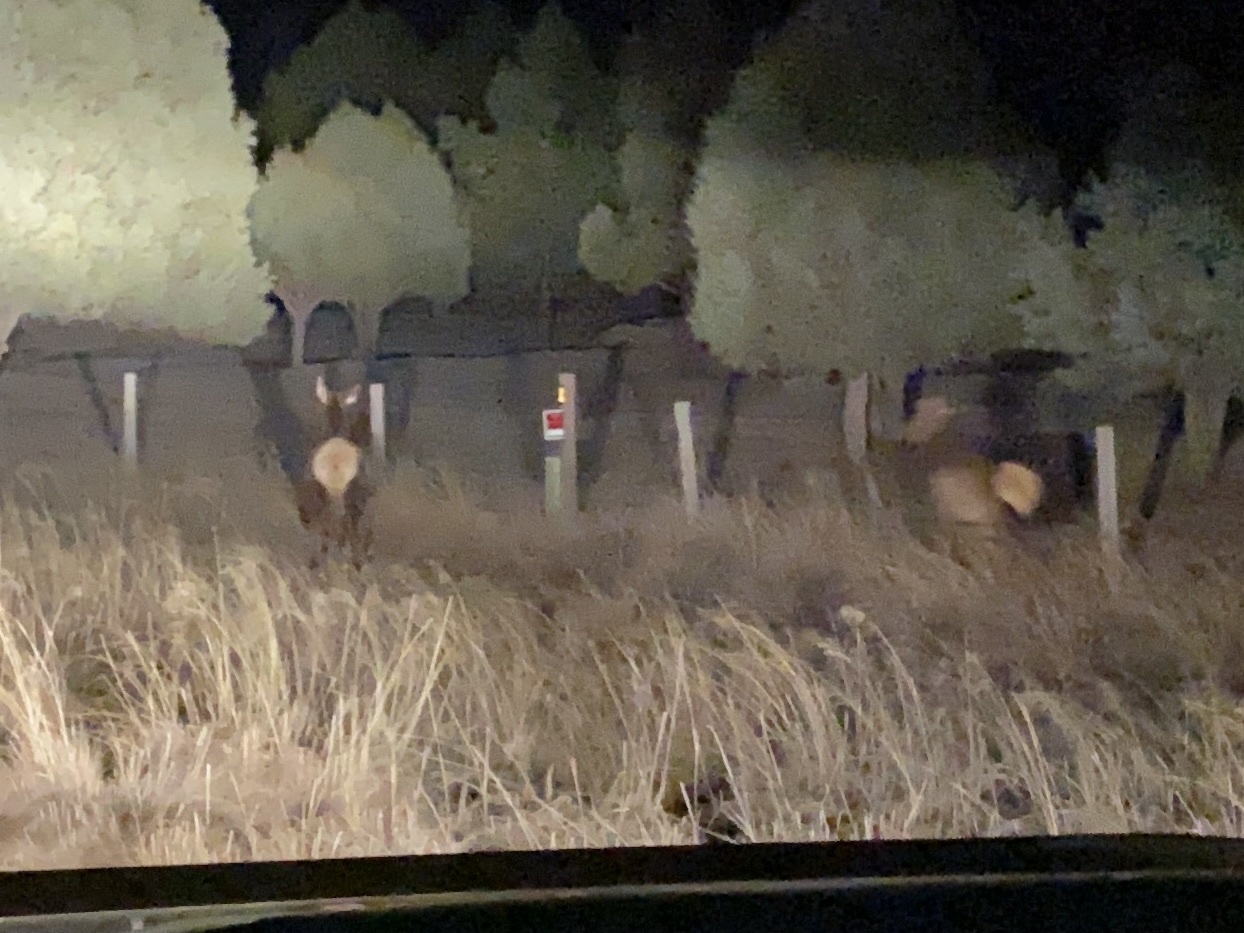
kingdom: Animalia
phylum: Chordata
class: Mammalia
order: Artiodactyla
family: Cervidae
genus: Cervus
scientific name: Cervus elaphus
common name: Red deer
